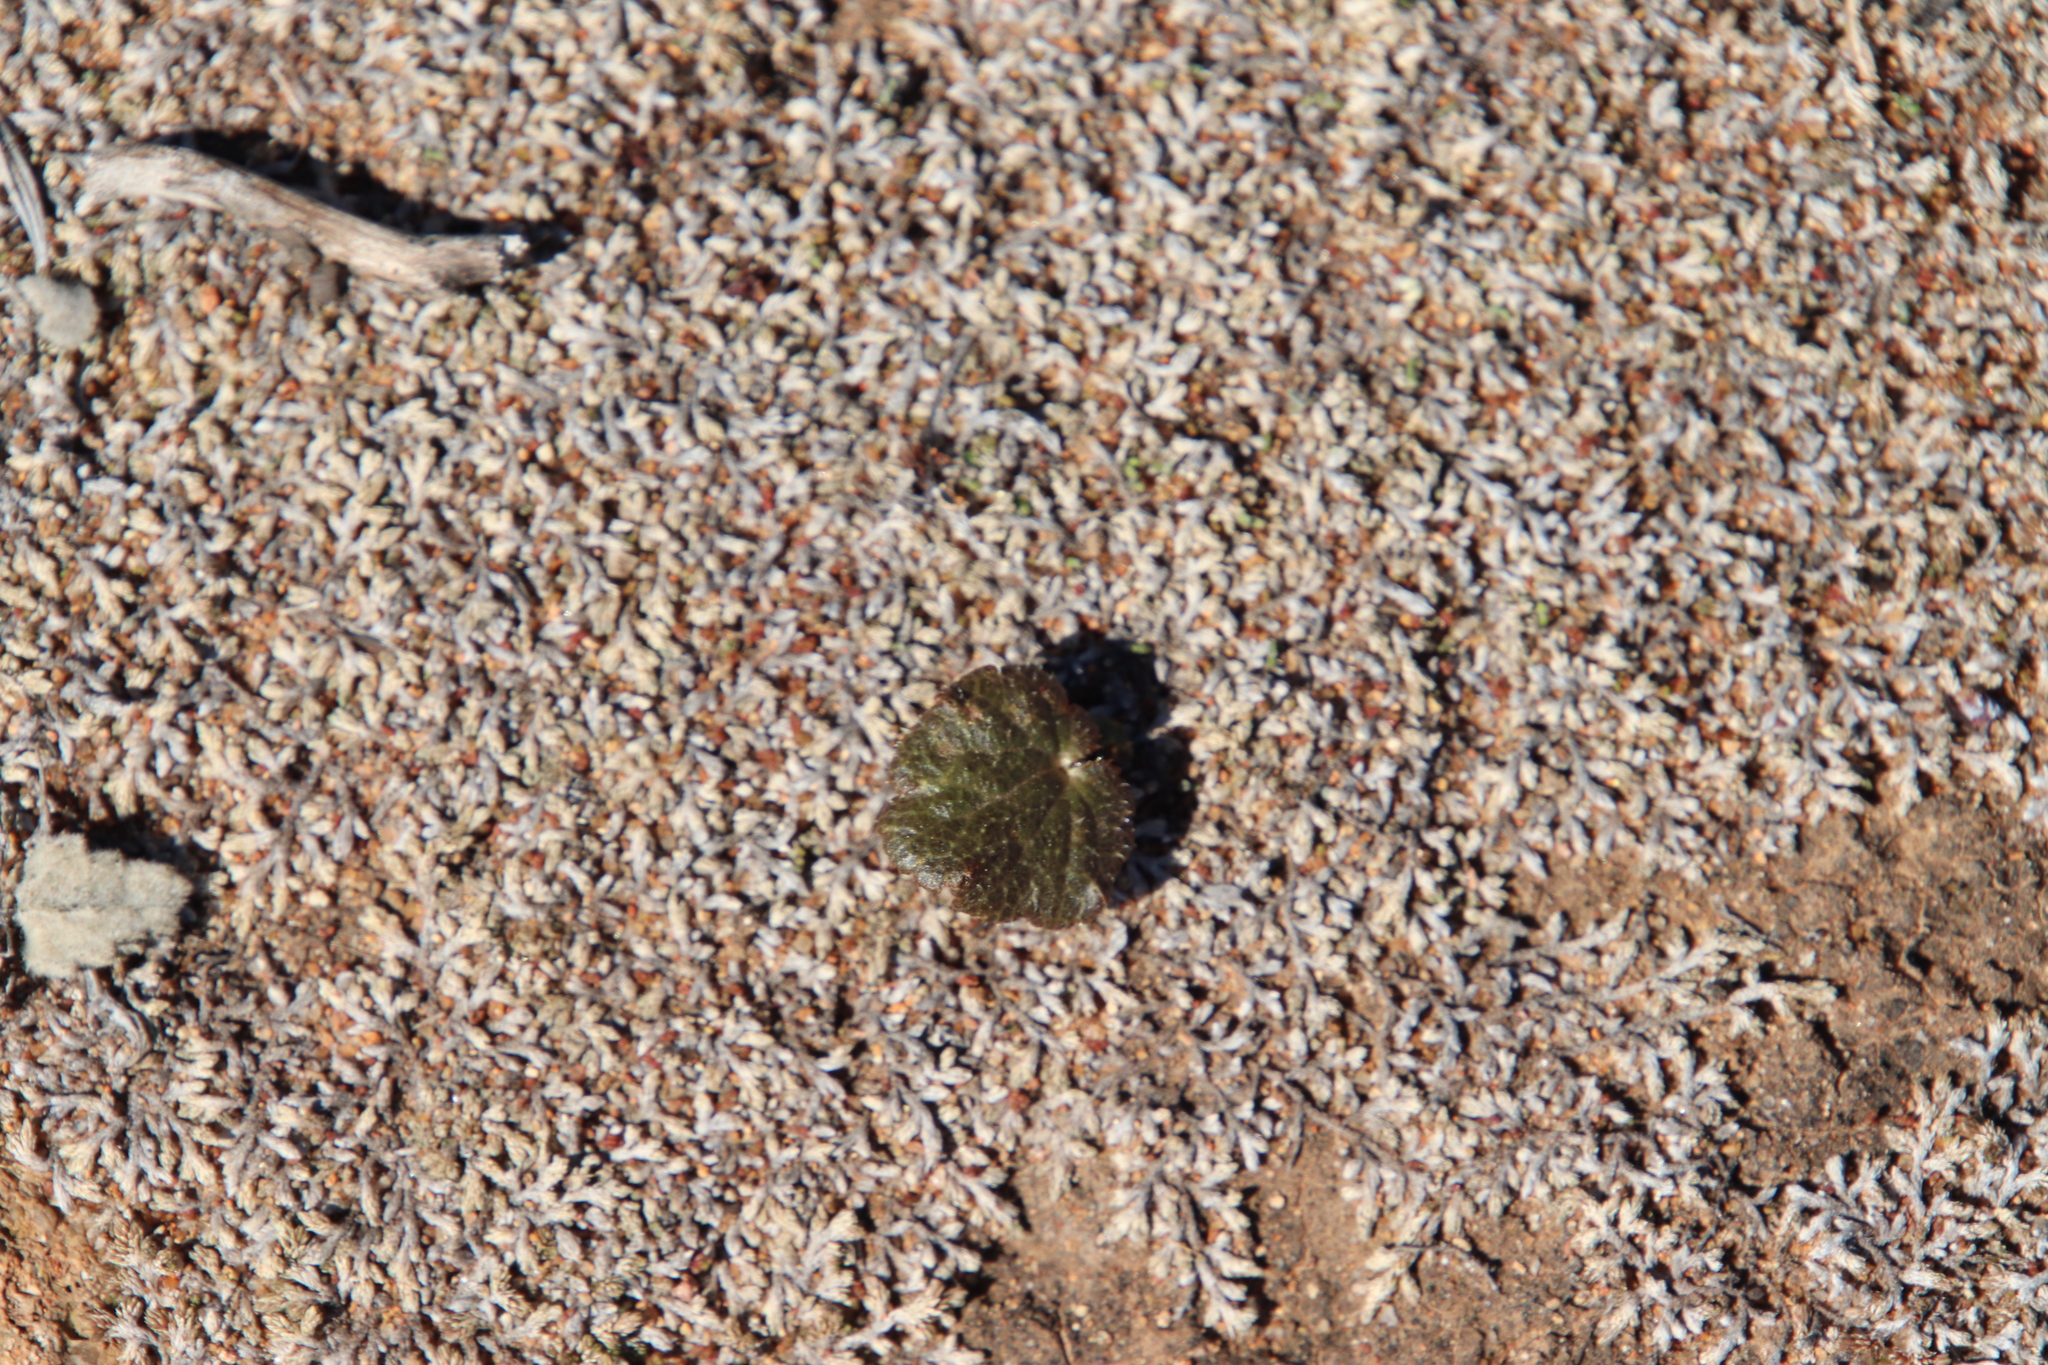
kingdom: Plantae
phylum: Tracheophyta
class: Magnoliopsida
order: Saxifragales
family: Saxifragaceae
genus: Jepsonia
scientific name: Jepsonia parryi
